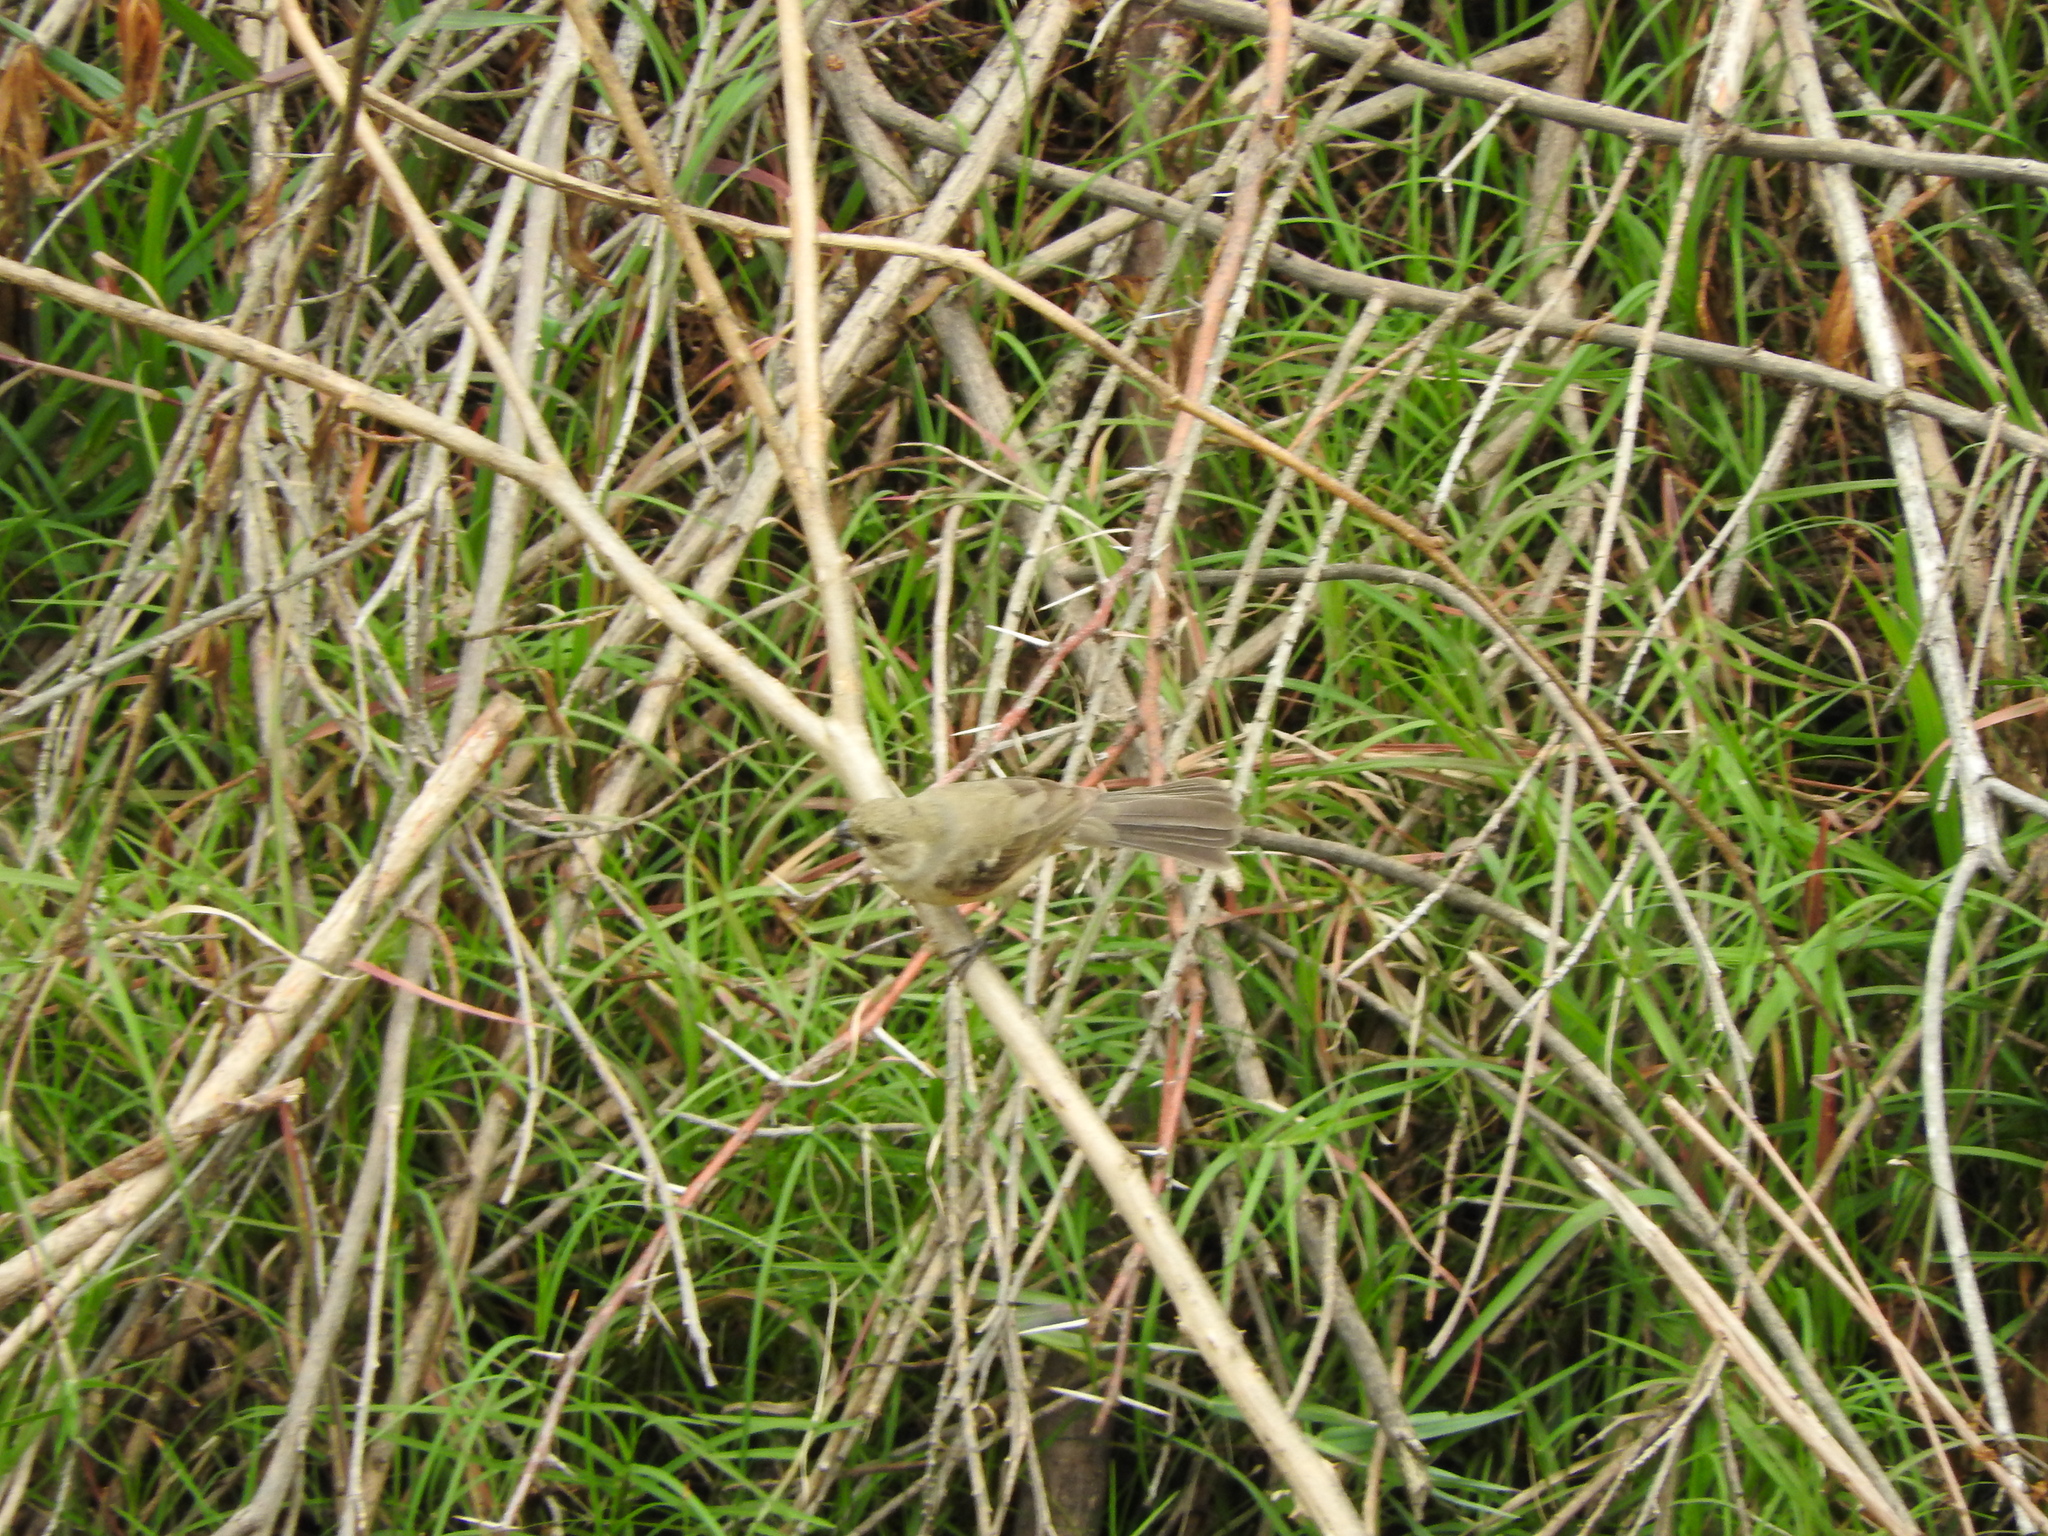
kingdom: Animalia
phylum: Chordata
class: Aves
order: Passeriformes
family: Thraupidae
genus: Sporophila
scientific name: Sporophila torqueola
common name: White-collared seedeater
